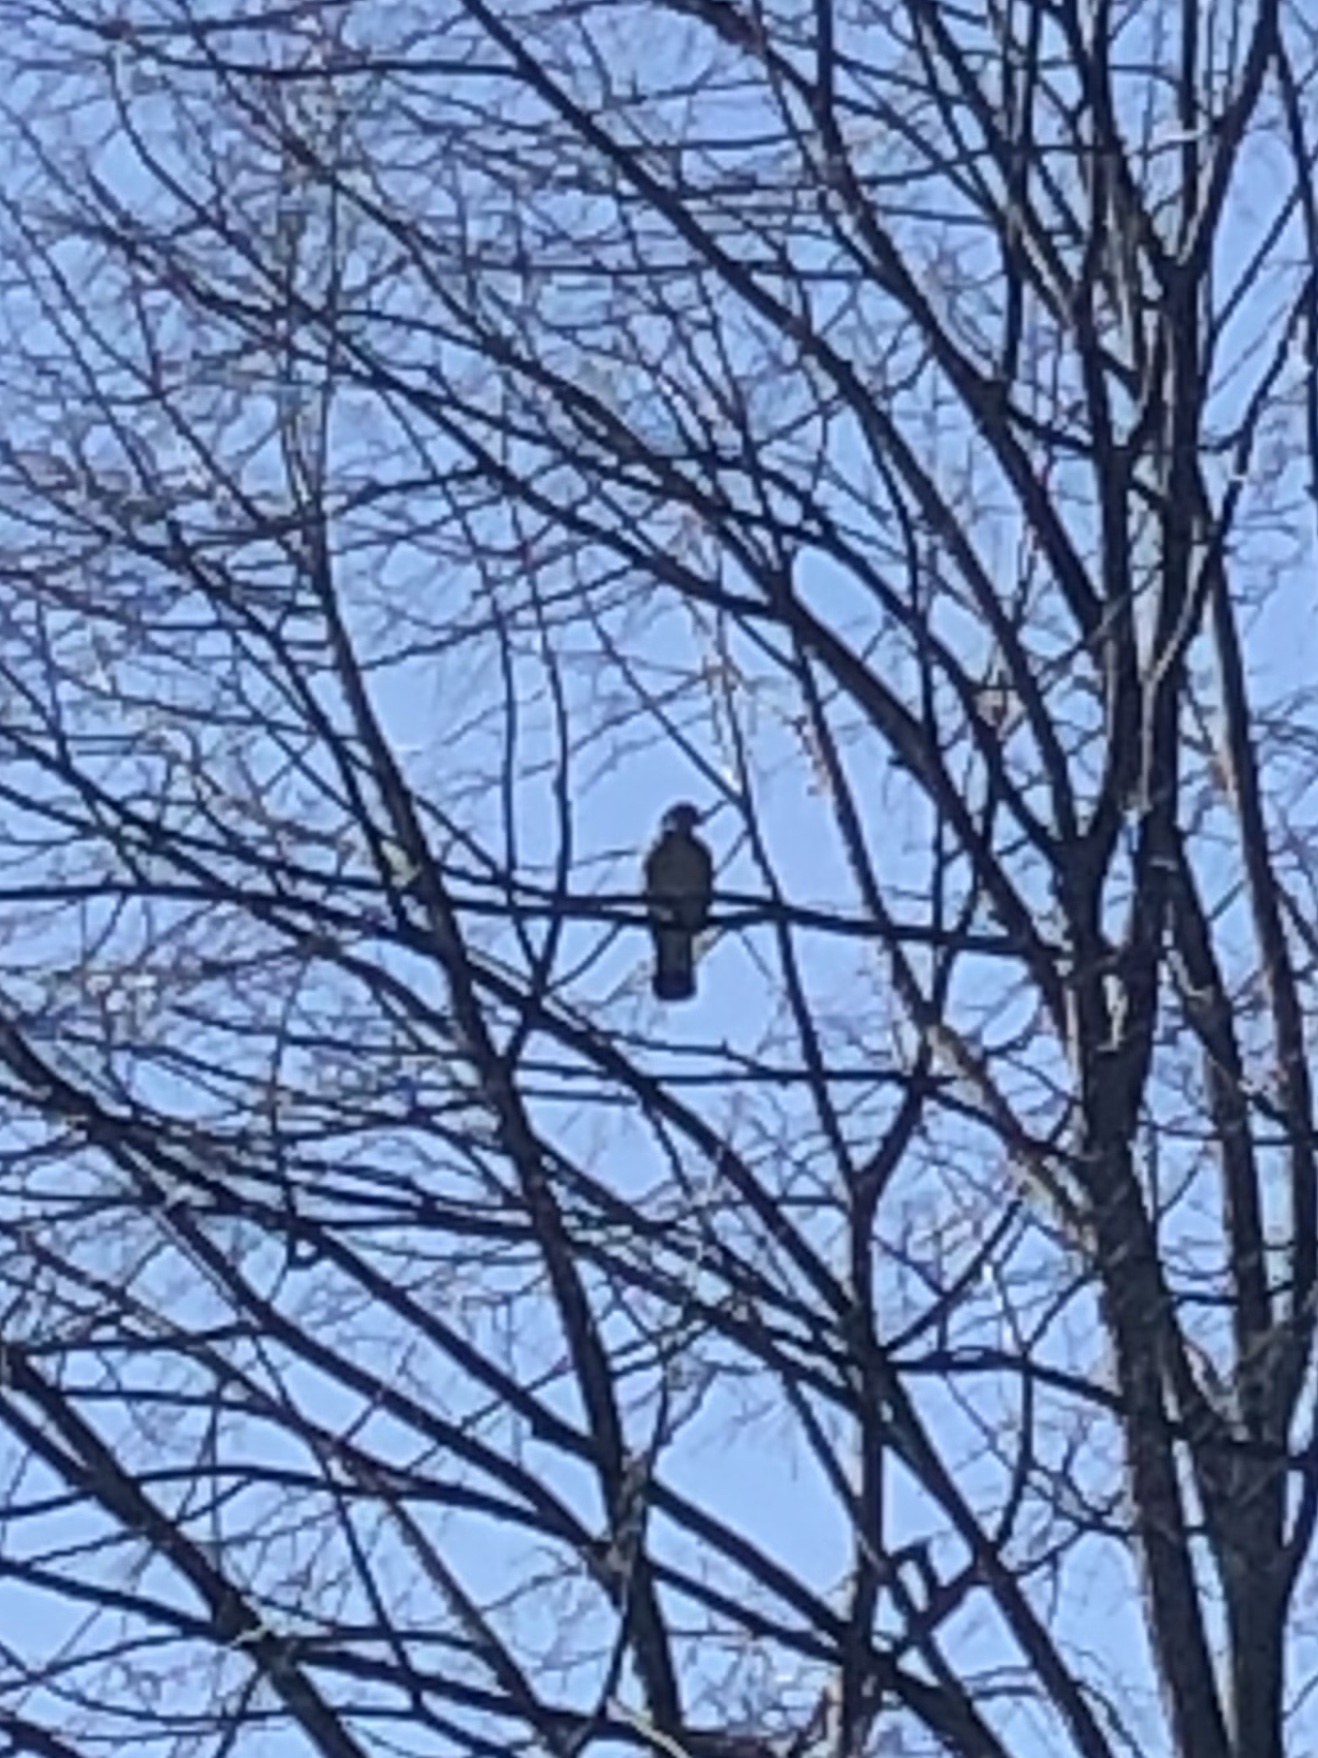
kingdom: Animalia
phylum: Chordata
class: Aves
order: Columbiformes
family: Columbidae
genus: Columba
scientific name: Columba palumbus
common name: Common wood pigeon
